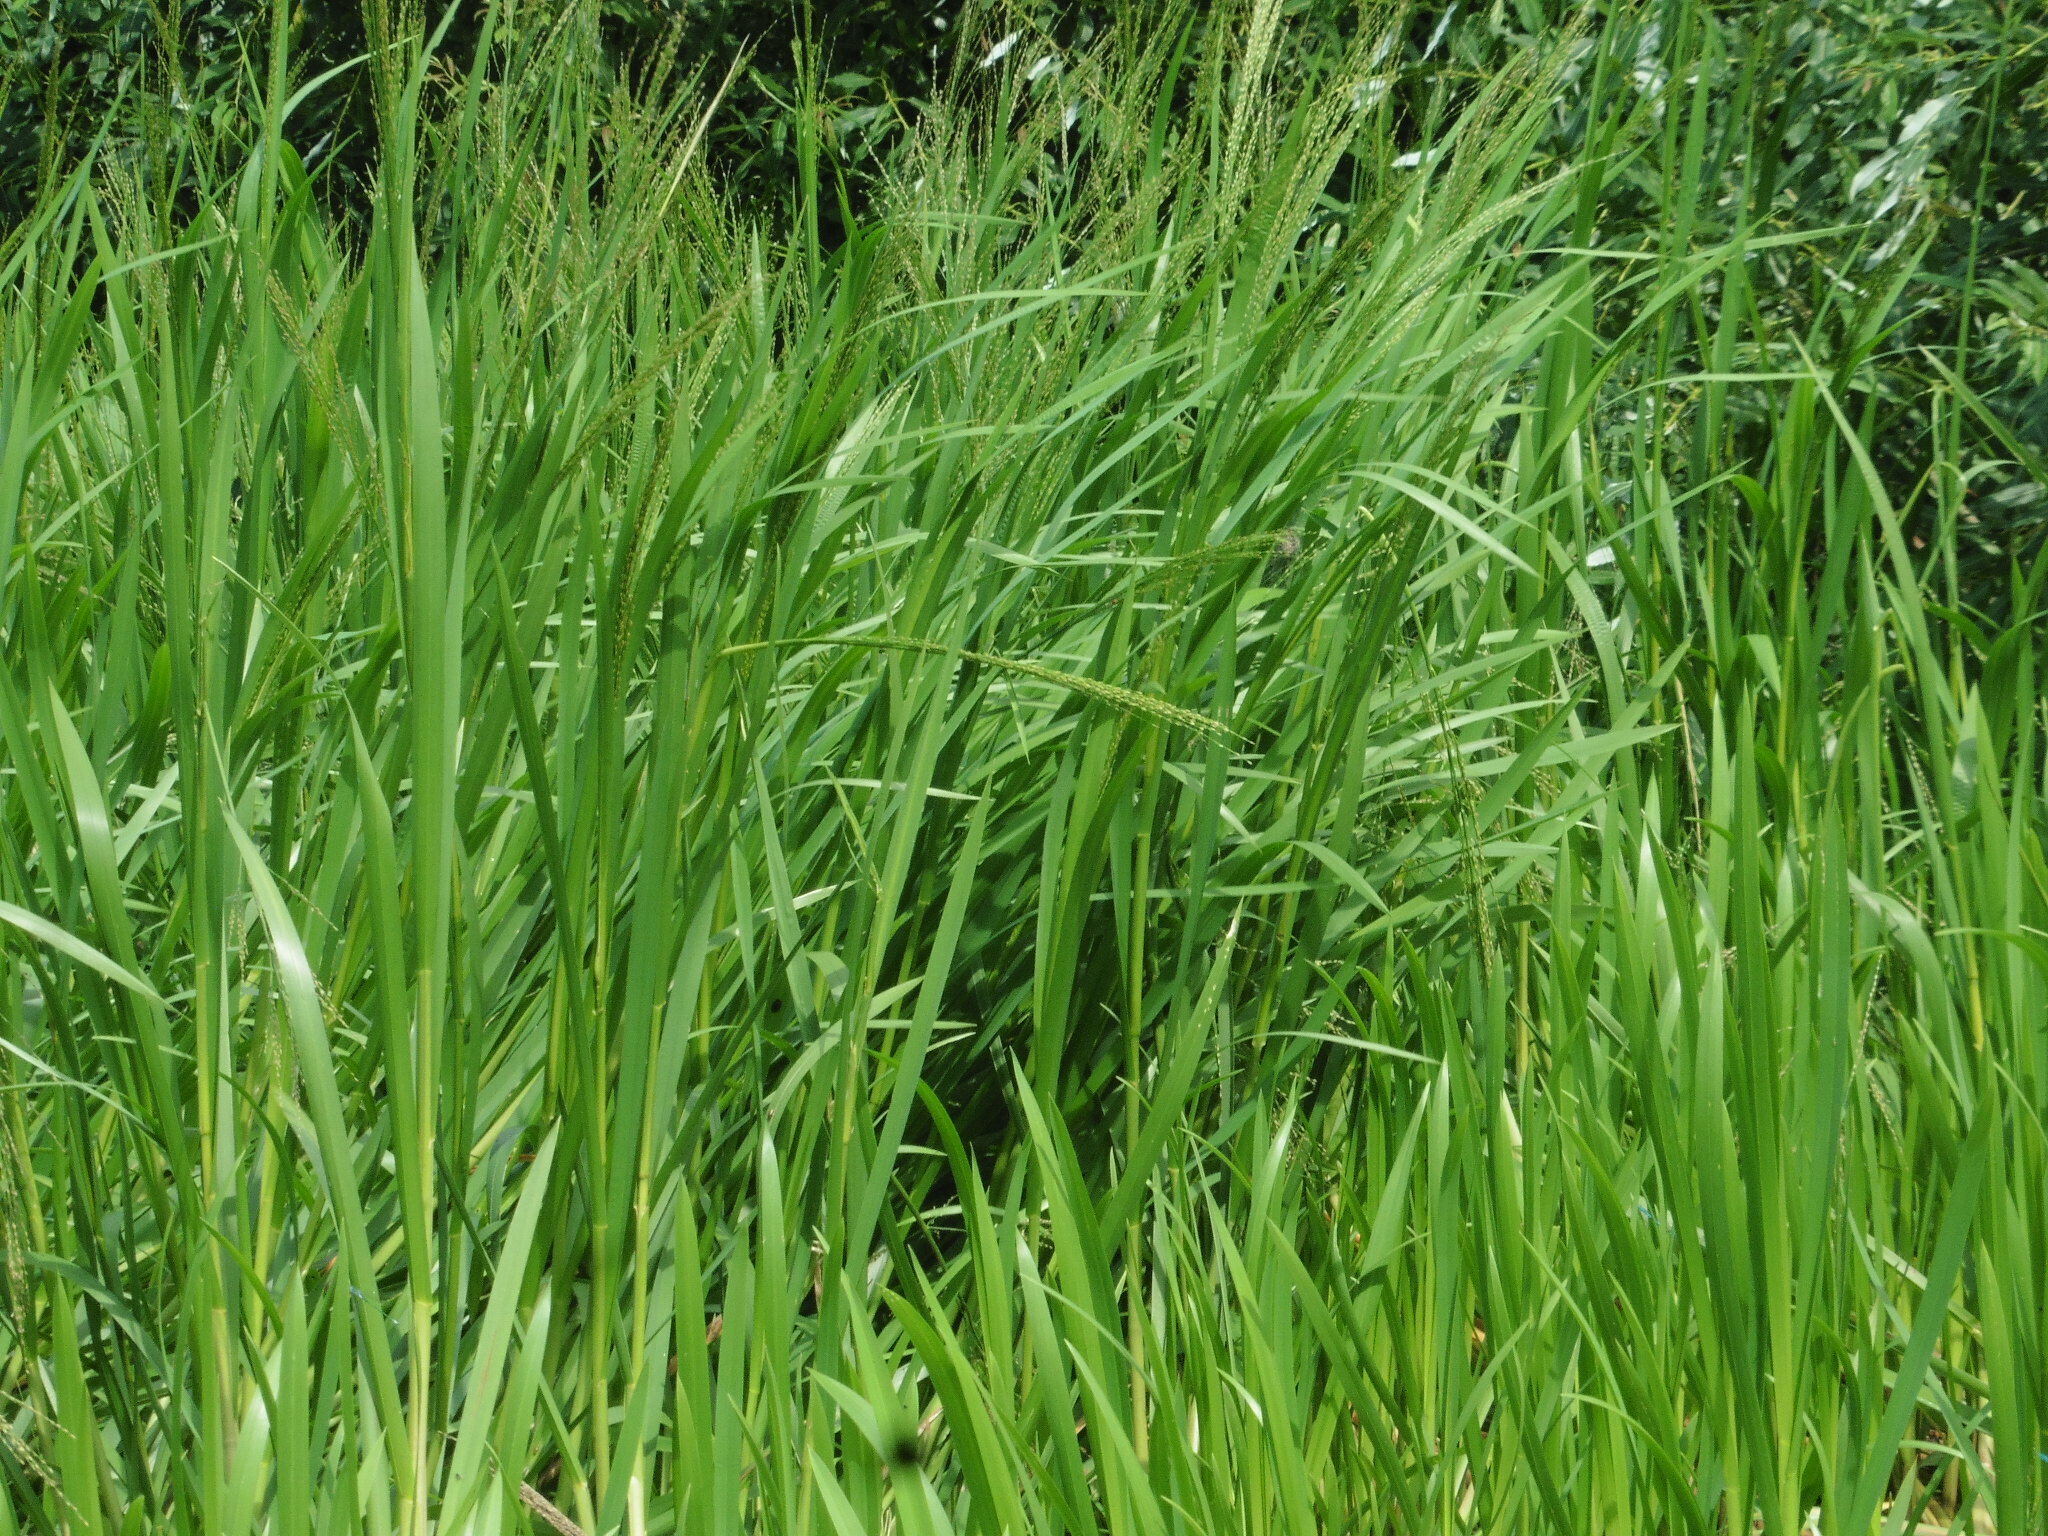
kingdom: Plantae
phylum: Tracheophyta
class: Liliopsida
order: Poales
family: Poaceae
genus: Glyceria
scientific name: Glyceria maxima
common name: Reed mannagrass
